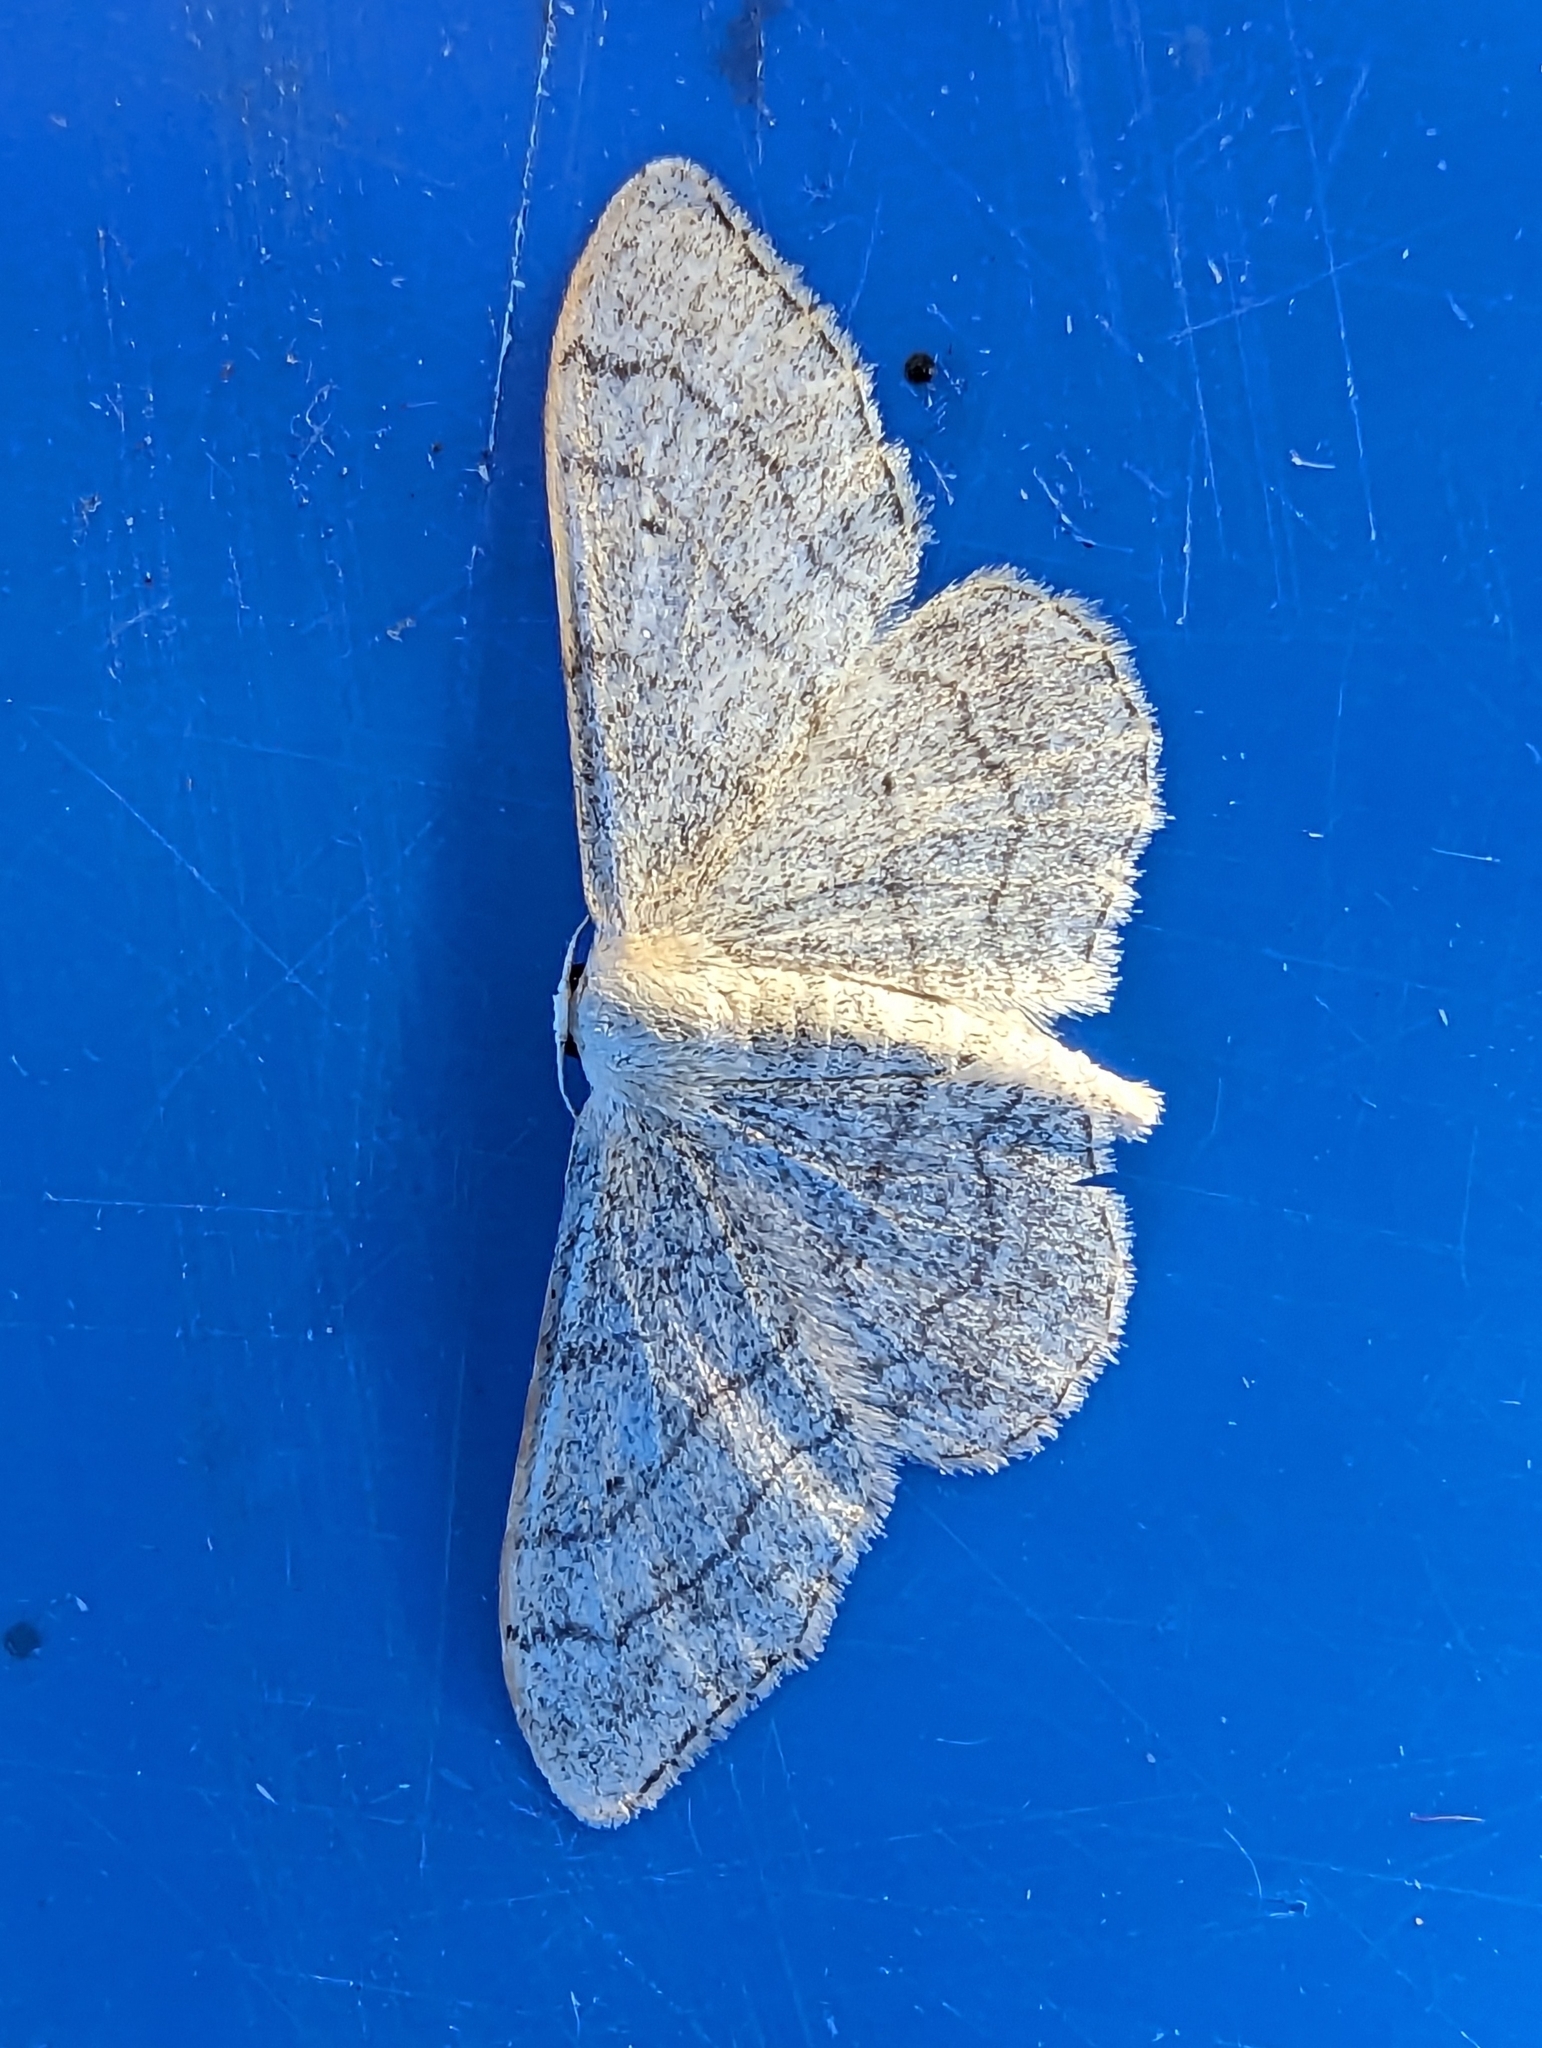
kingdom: Animalia
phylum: Arthropoda
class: Insecta
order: Lepidoptera
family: Geometridae
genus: Idaea
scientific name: Idaea aversata
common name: Riband wave
